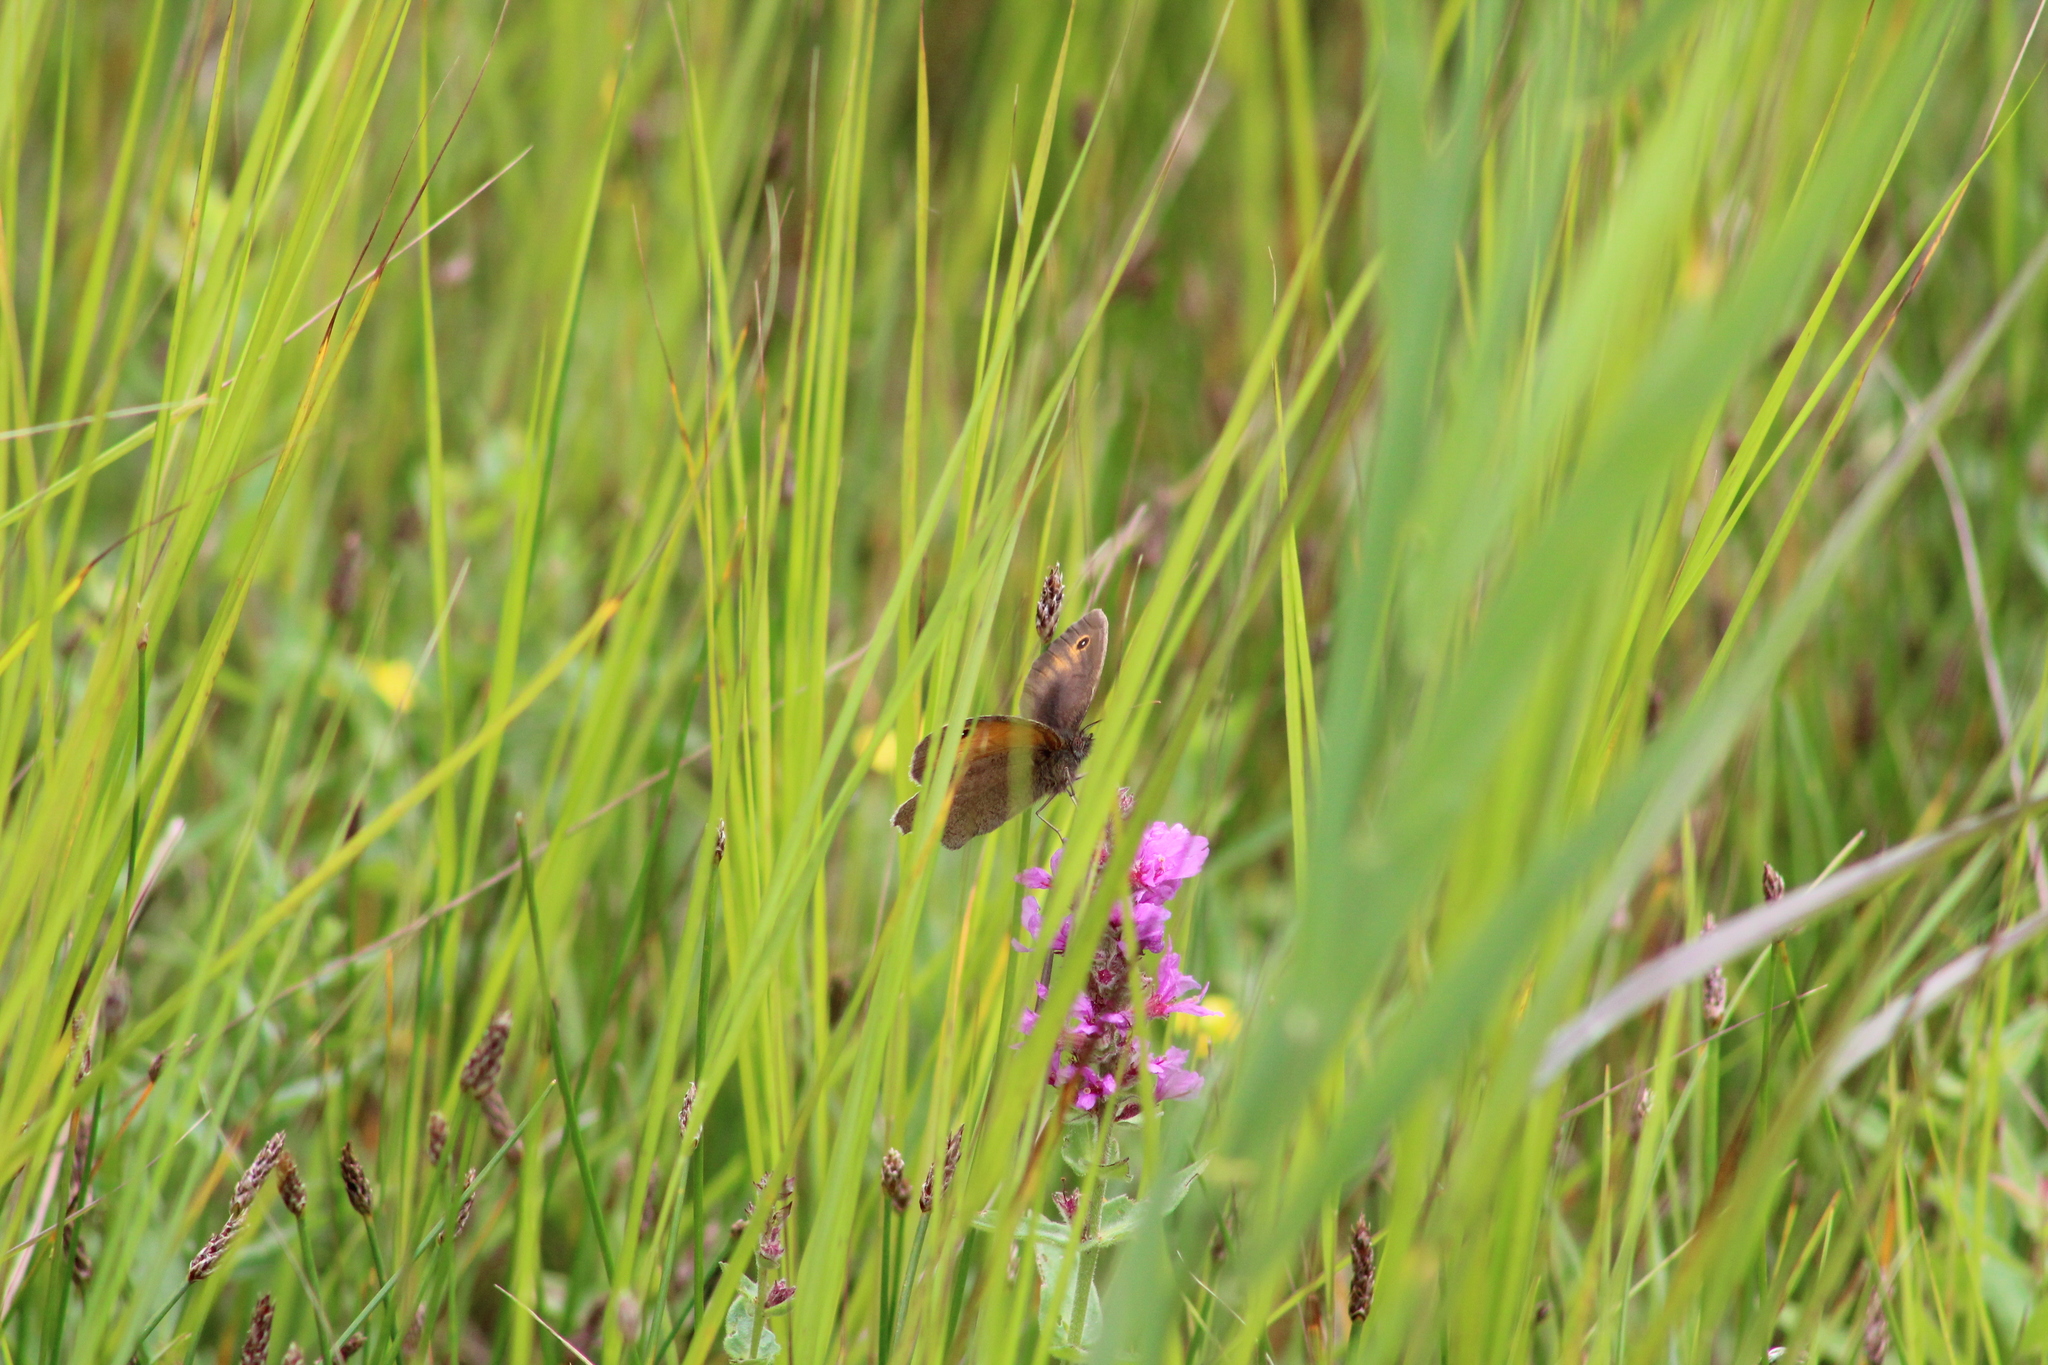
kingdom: Animalia
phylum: Arthropoda
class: Insecta
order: Lepidoptera
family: Nymphalidae
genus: Maniola
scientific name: Maniola jurtina
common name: Meadow brown
